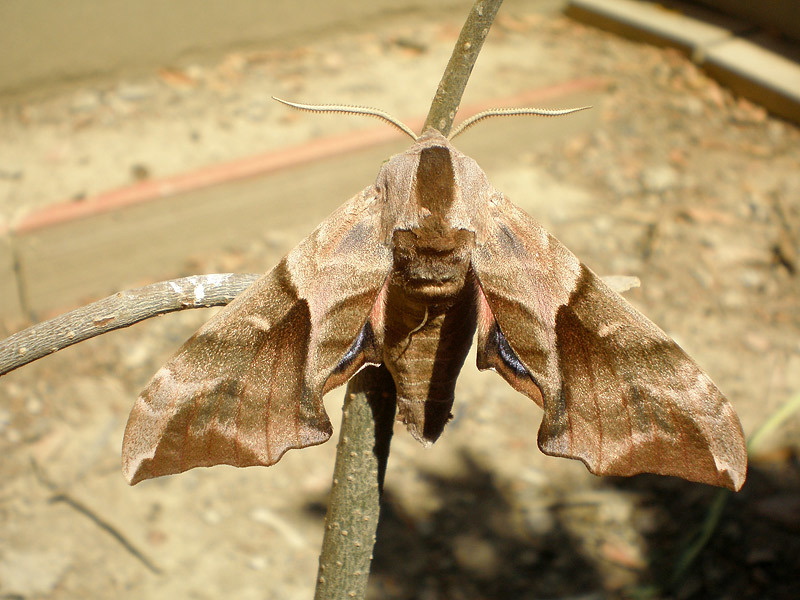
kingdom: Animalia
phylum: Arthropoda
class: Insecta
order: Lepidoptera
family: Sphingidae
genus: Smerinthus
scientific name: Smerinthus ocellata
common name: Eyed hawk-moth
